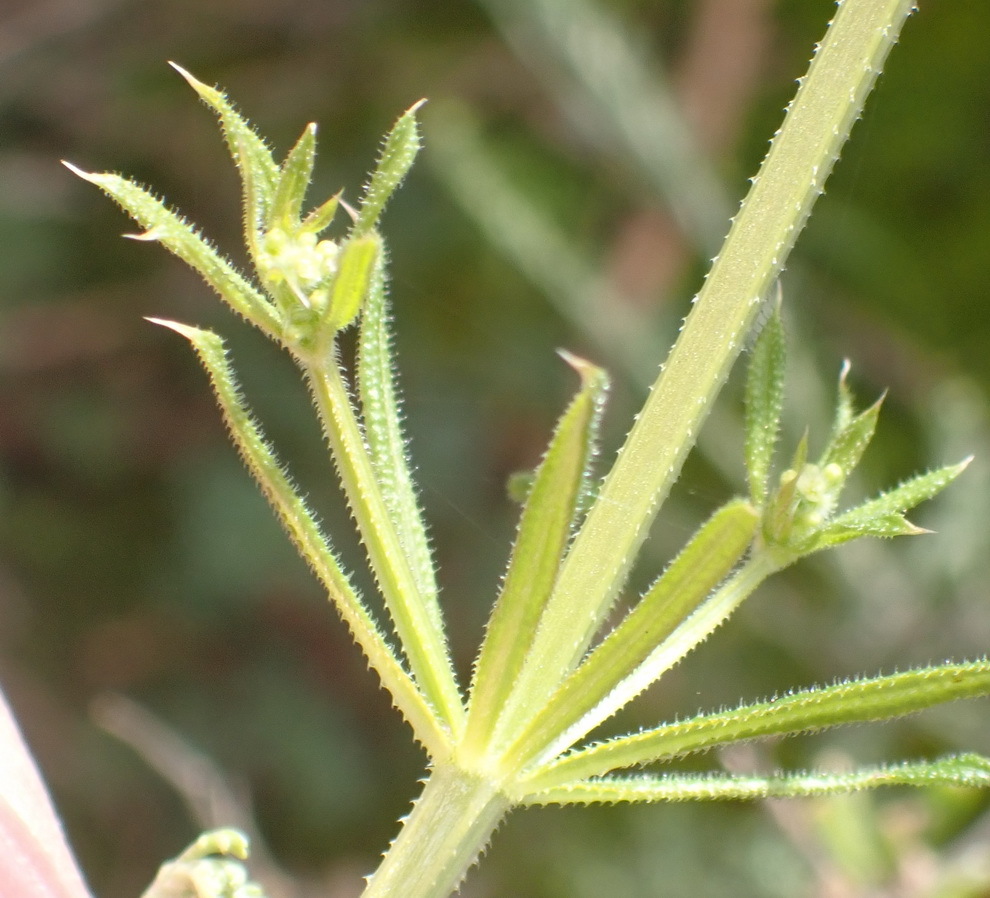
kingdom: Plantae
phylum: Tracheophyta
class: Magnoliopsida
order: Gentianales
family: Rubiaceae
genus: Galium
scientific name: Galium tomentosum
